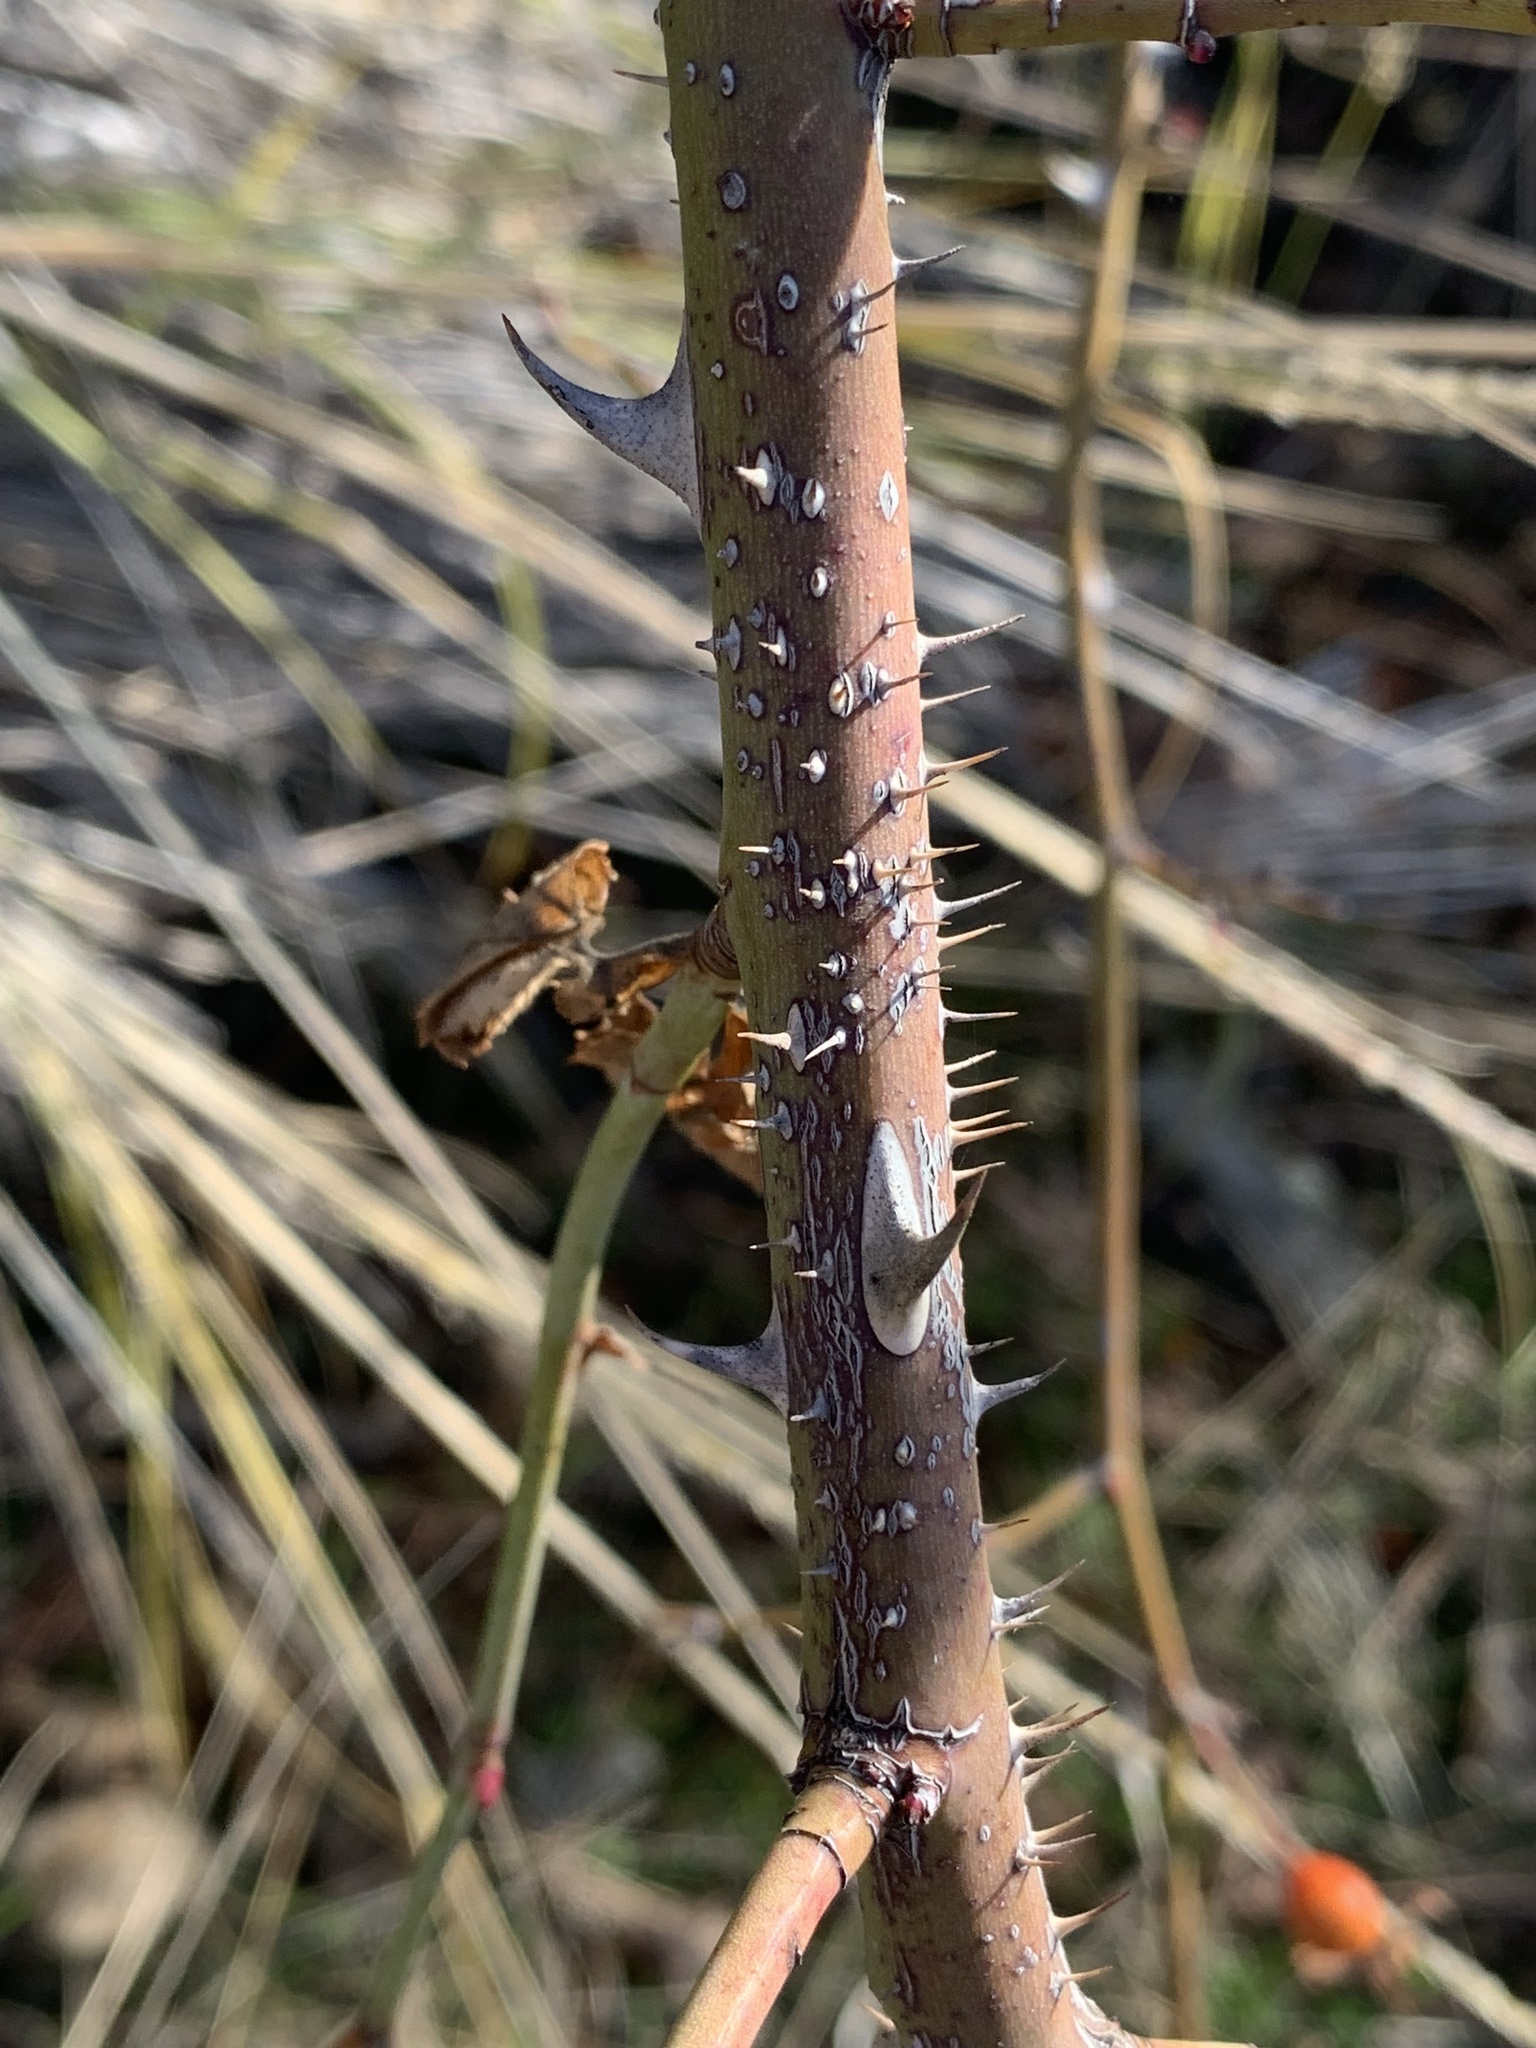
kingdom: Plantae
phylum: Tracheophyta
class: Magnoliopsida
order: Rosales
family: Rosaceae
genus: Rosa
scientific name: Rosa canina
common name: Dog rose
